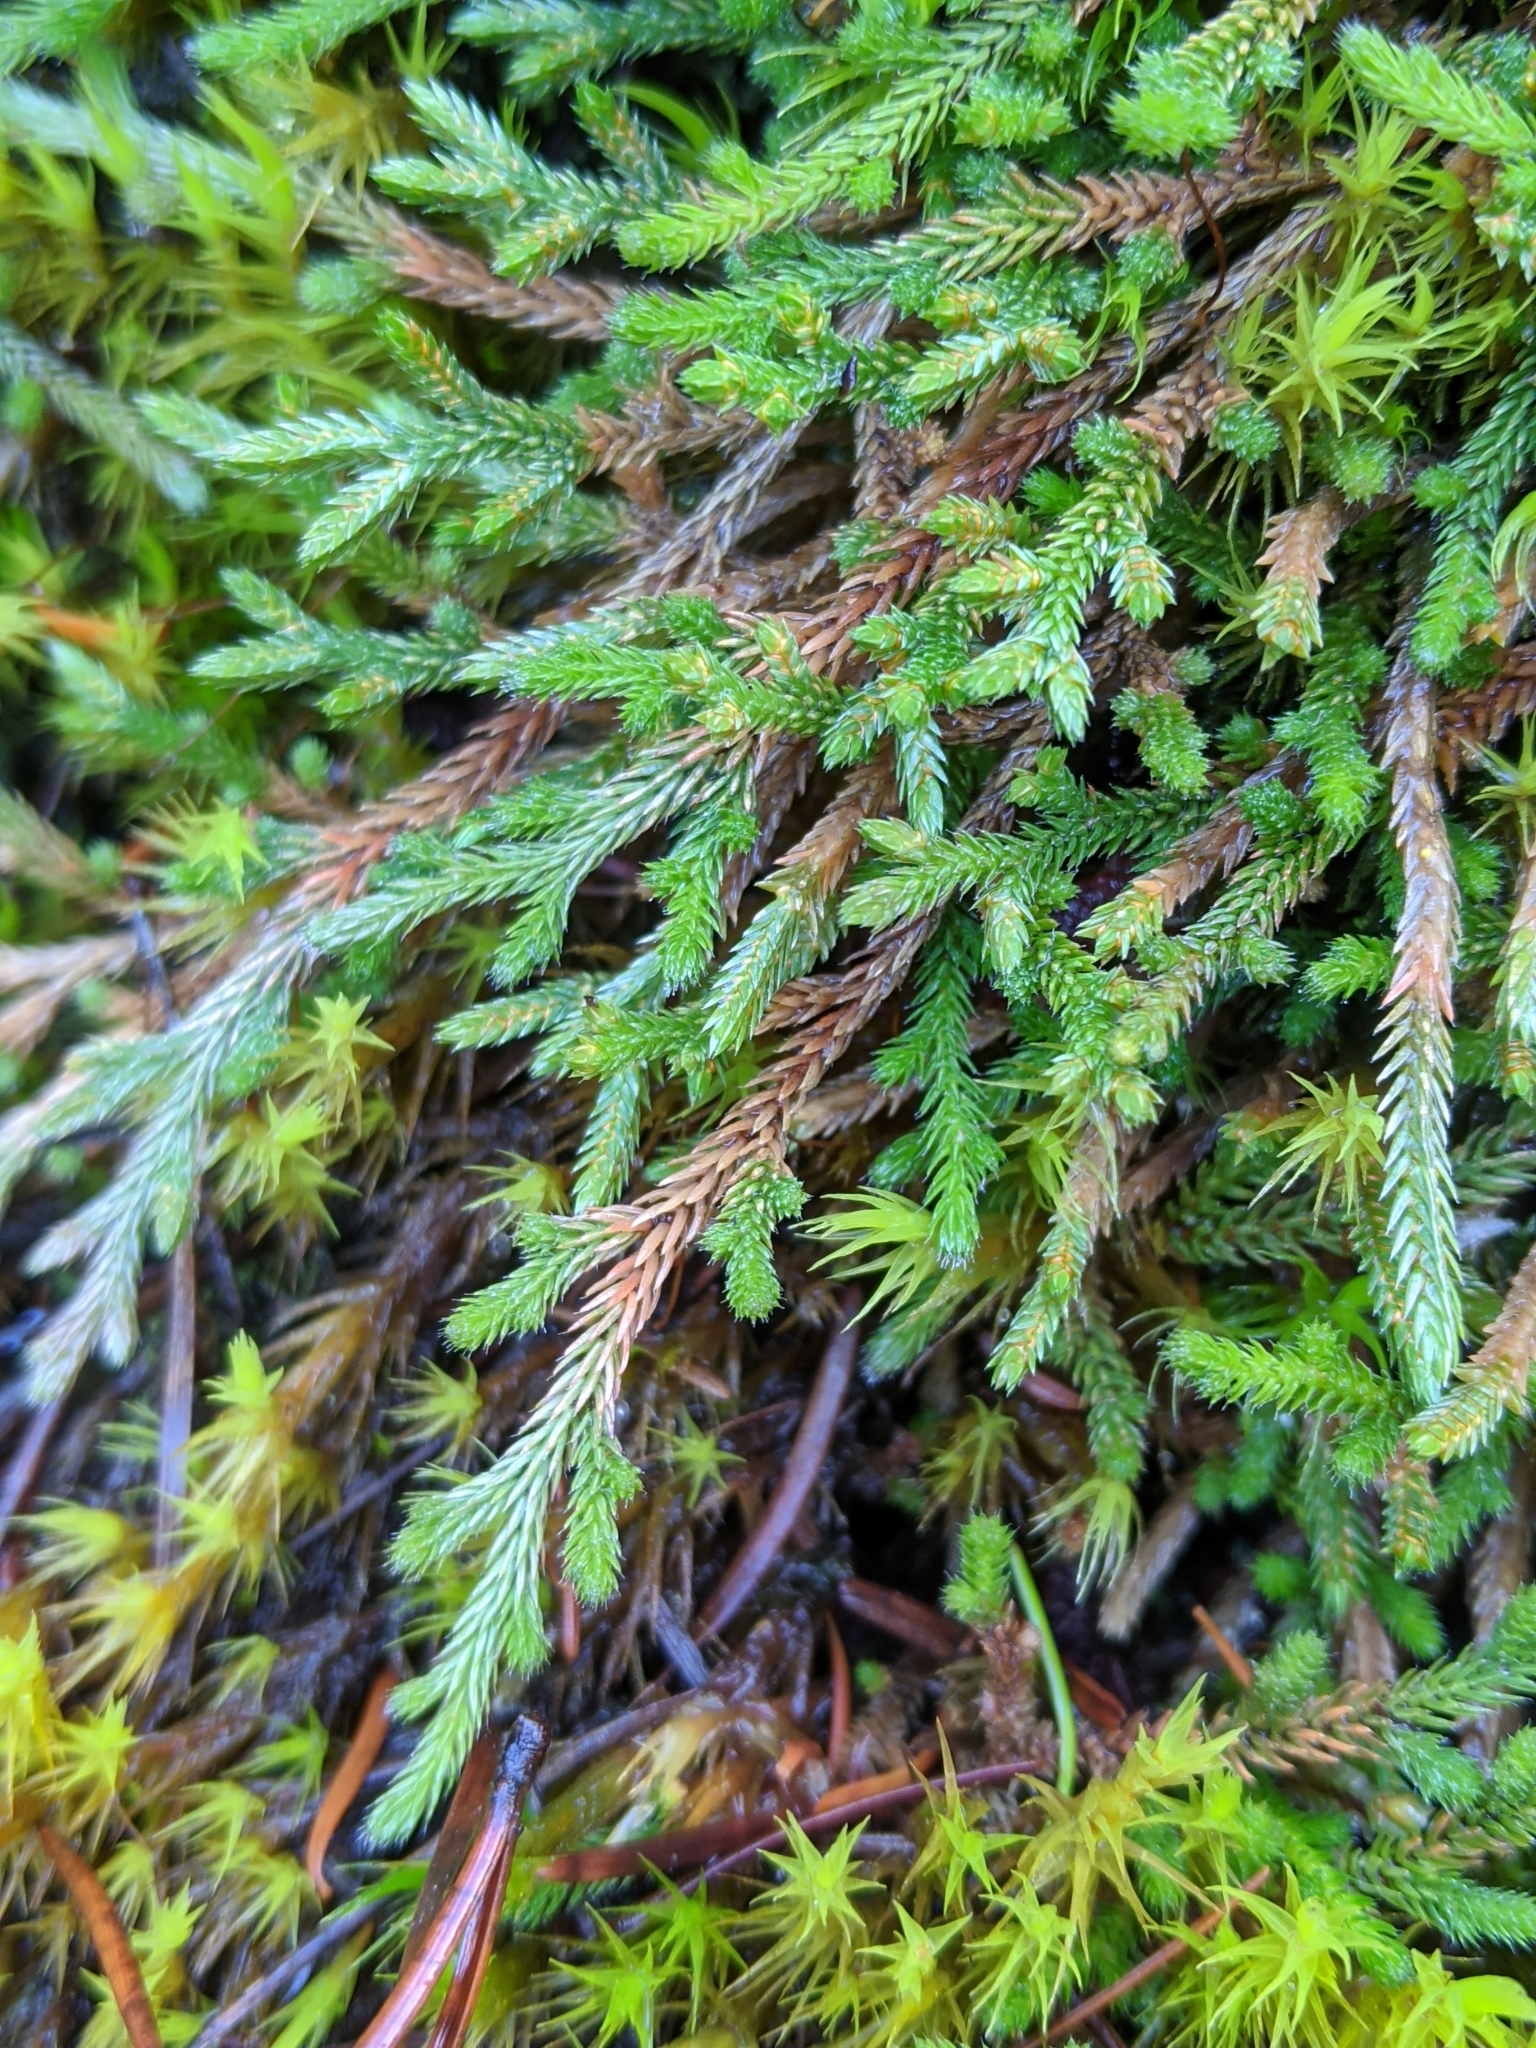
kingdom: Plantae
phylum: Tracheophyta
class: Lycopodiopsida
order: Selaginellales
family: Selaginellaceae
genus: Selaginella
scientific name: Selaginella wallacei
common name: Wallace's selaginella
